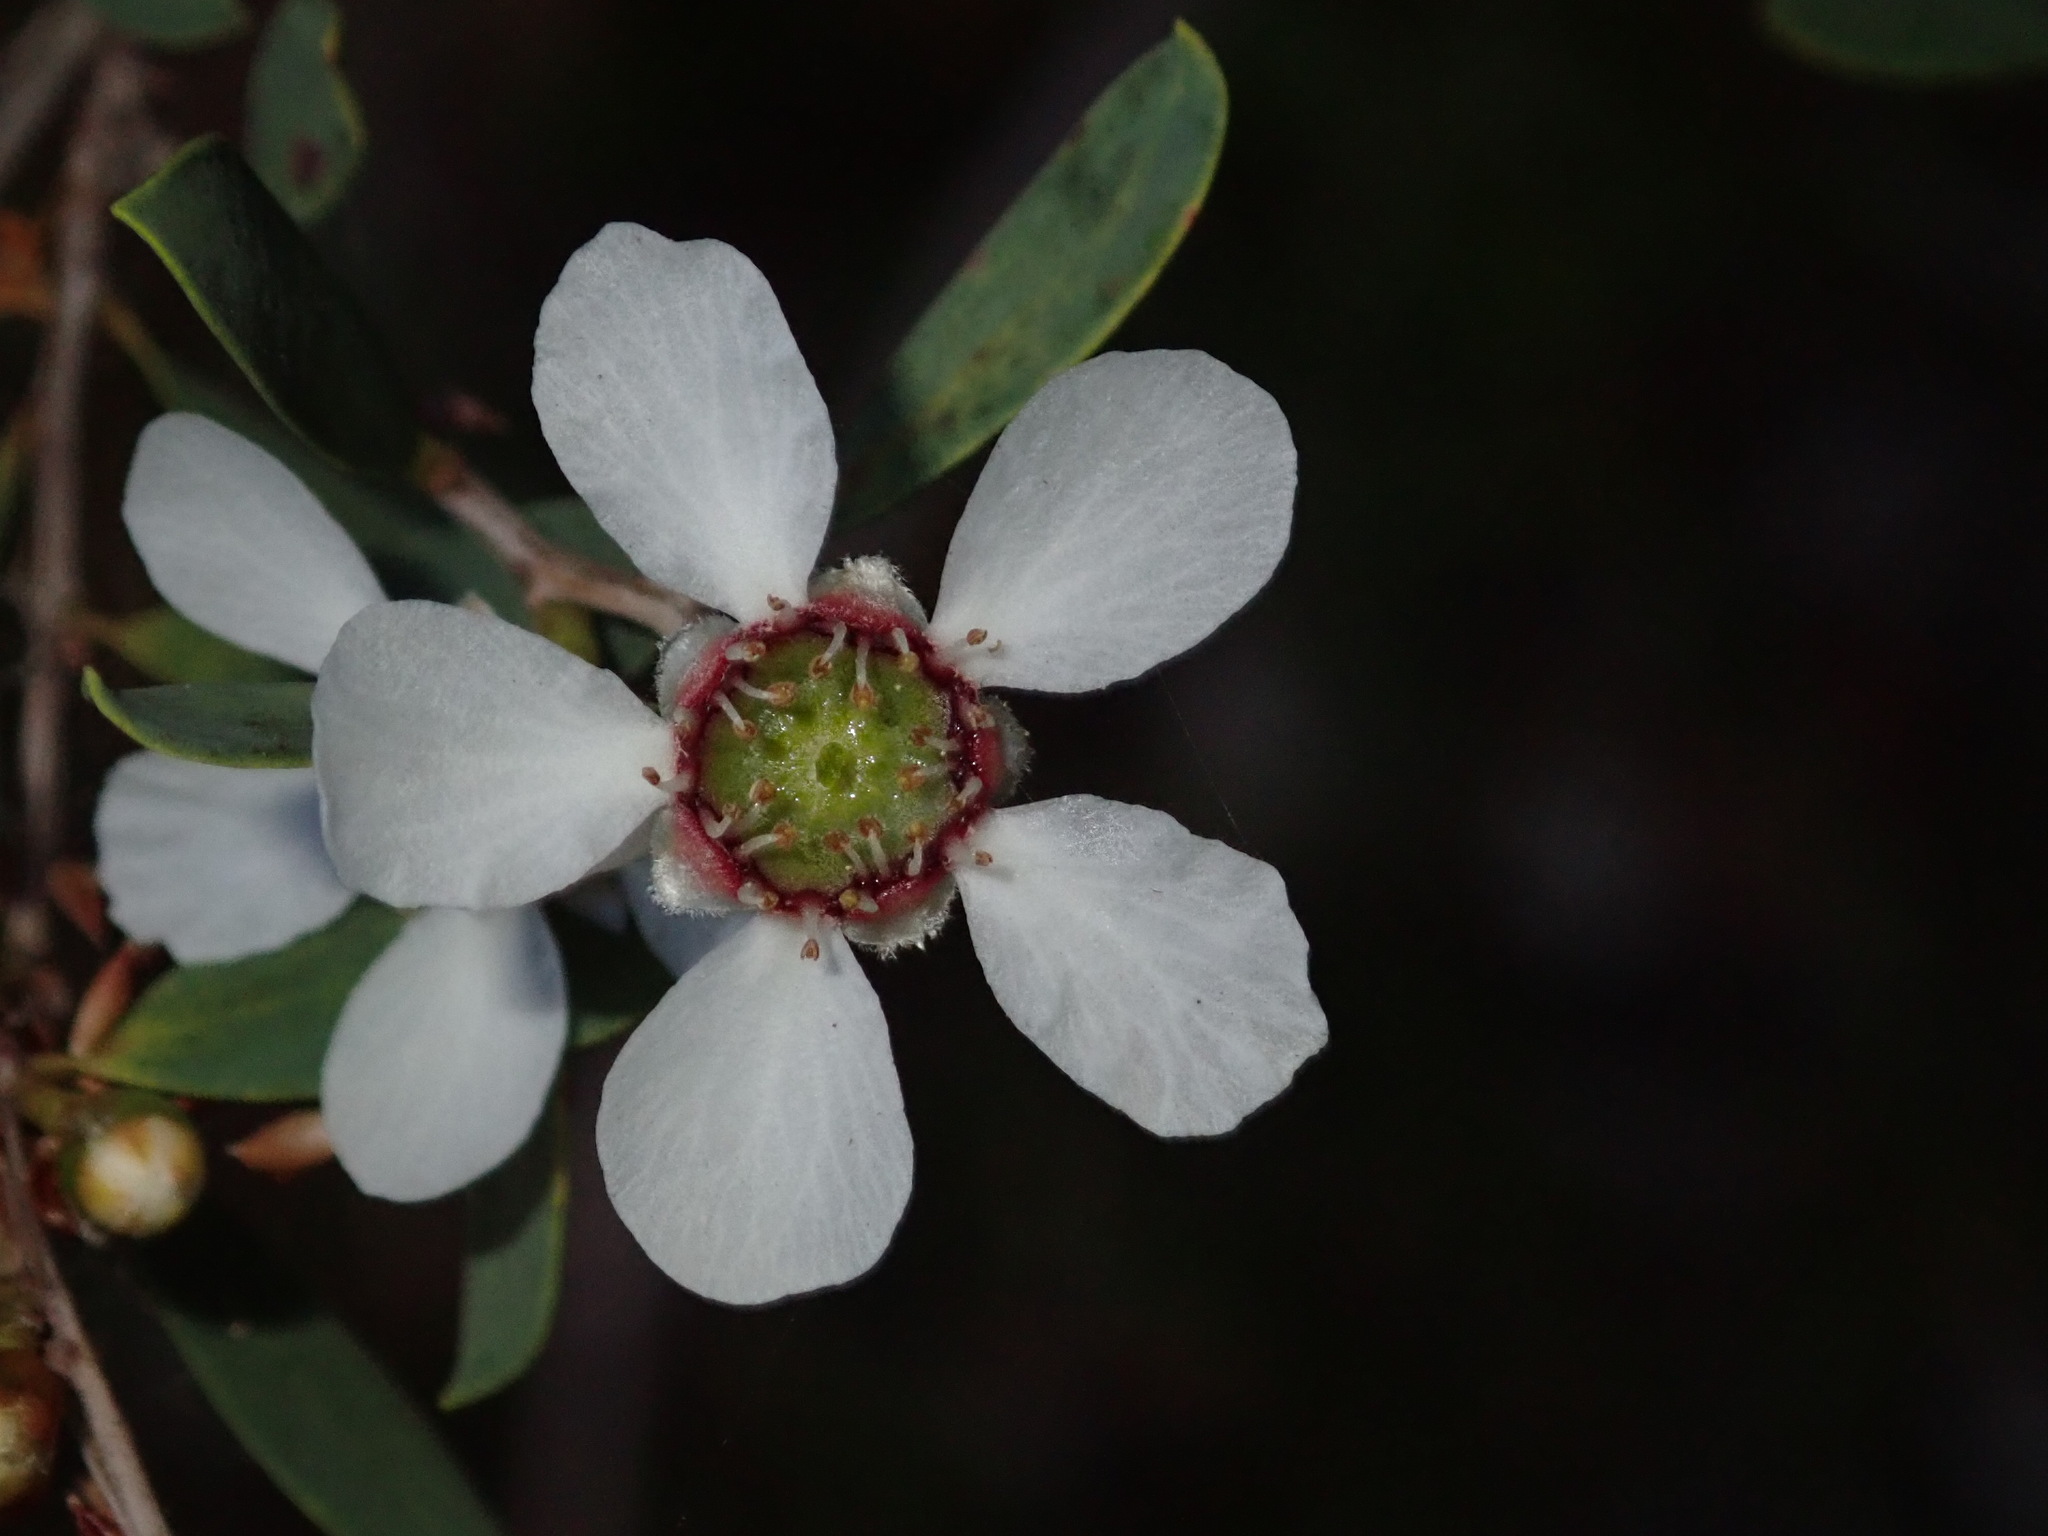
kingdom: Plantae
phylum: Tracheophyta
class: Magnoliopsida
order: Myrtales
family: Myrtaceae
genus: Leptospermum
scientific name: Leptospermum laevigatum
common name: Australian teatree
